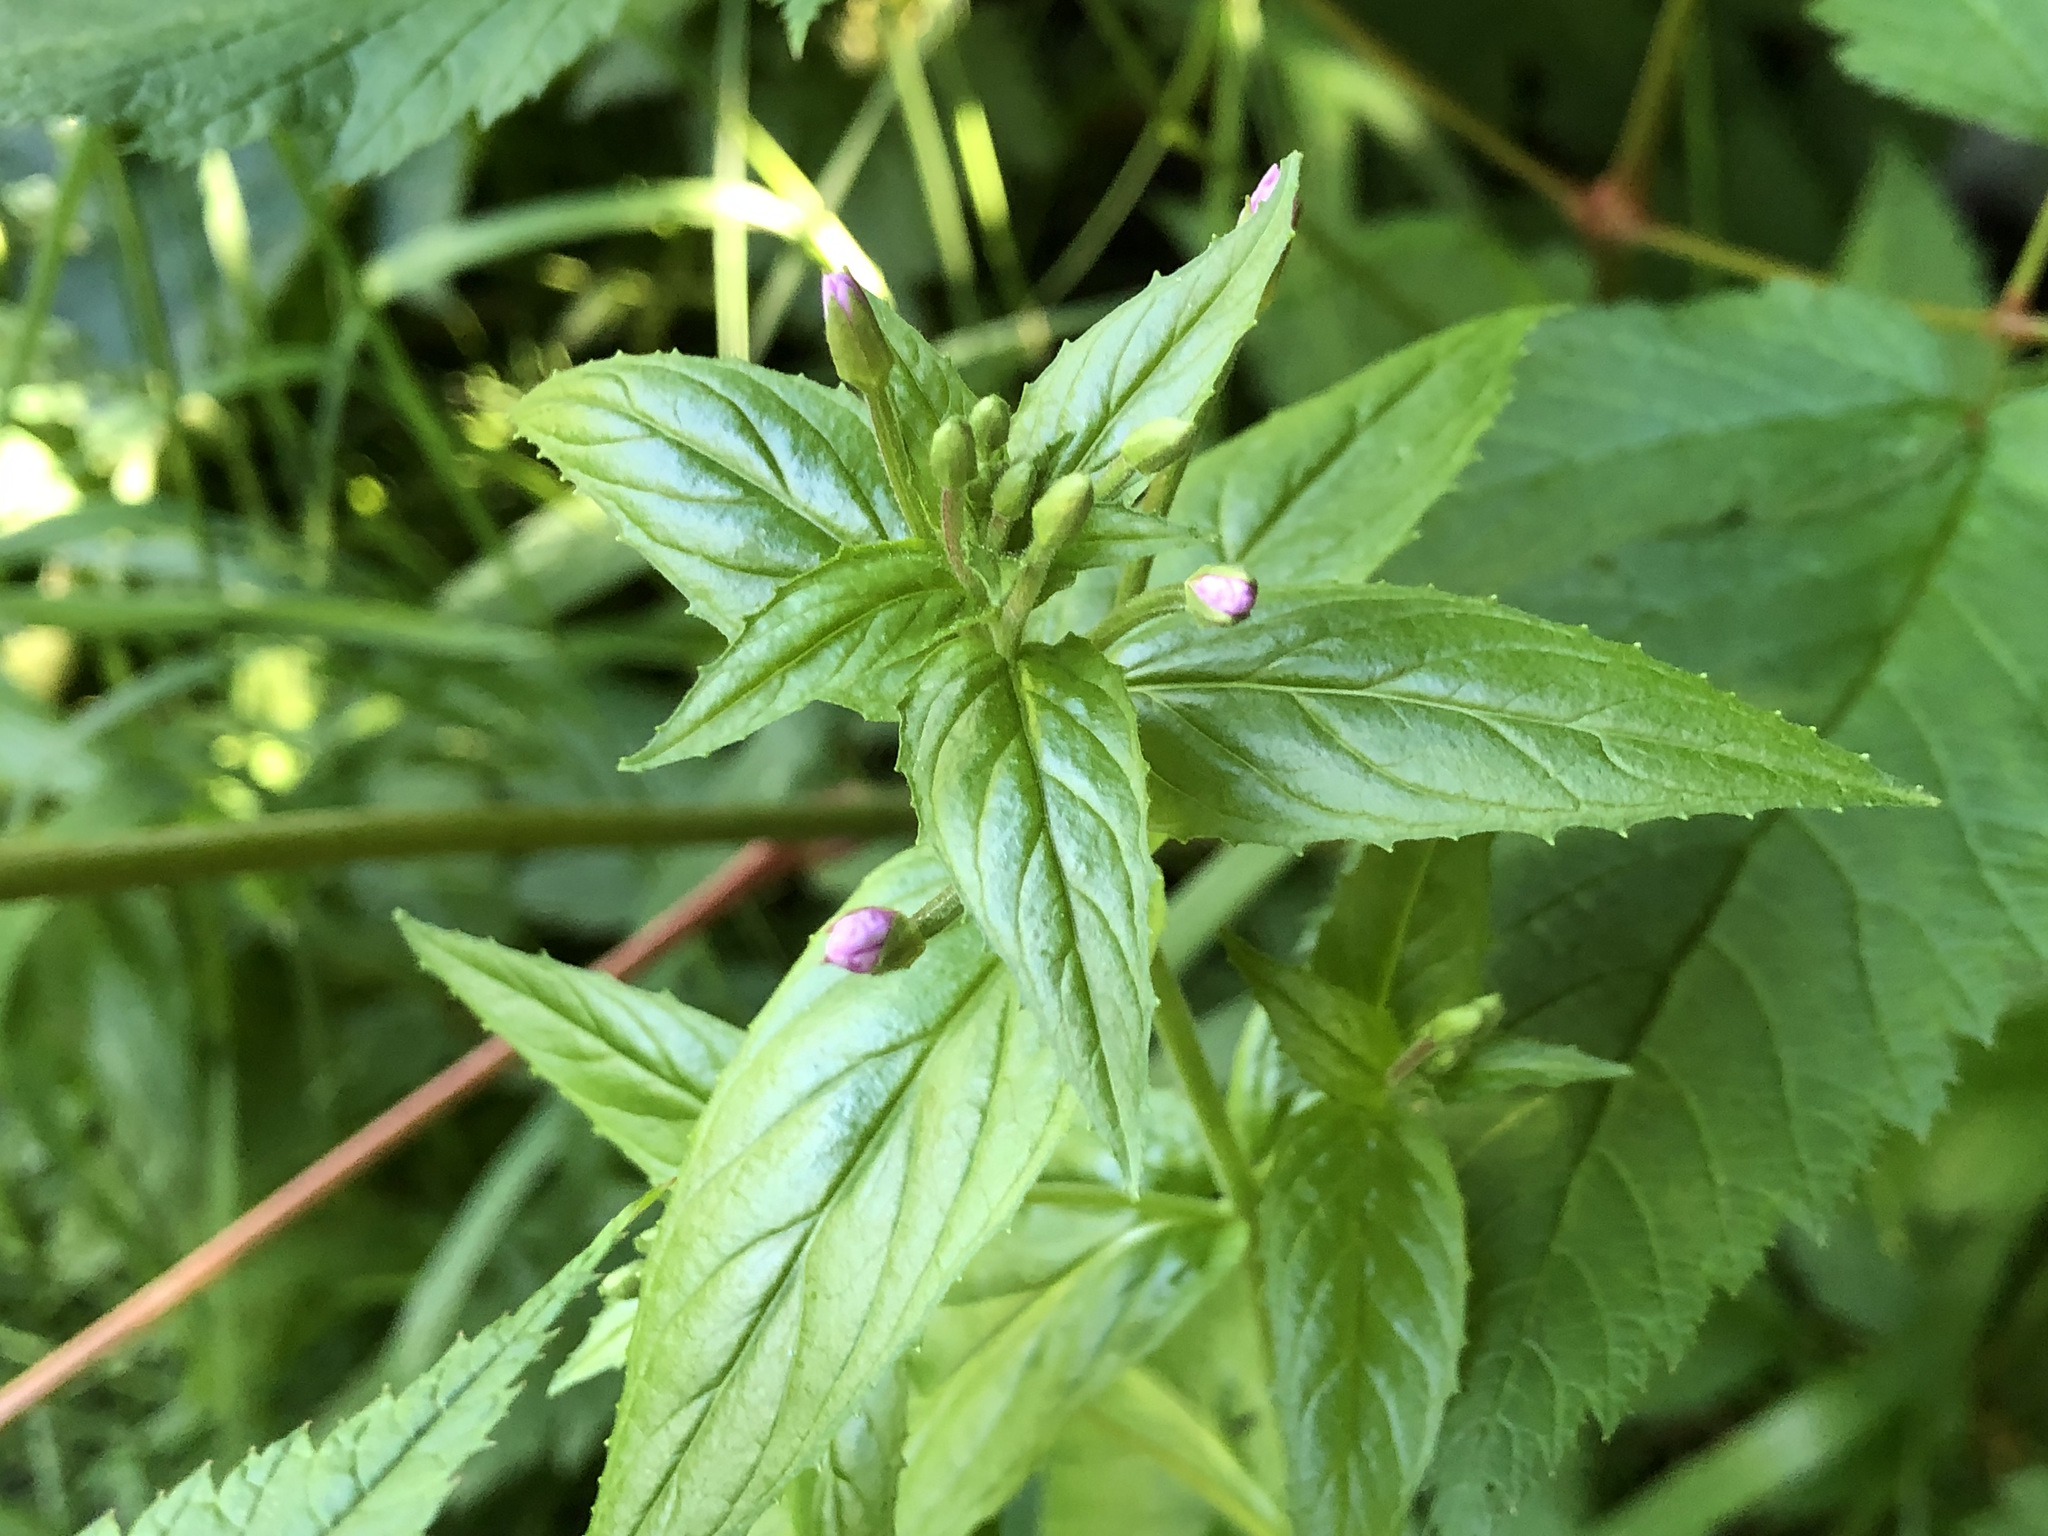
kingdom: Plantae
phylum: Tracheophyta
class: Magnoliopsida
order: Myrtales
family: Onagraceae
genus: Epilobium
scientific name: Epilobium ciliatum
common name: American willowherb
